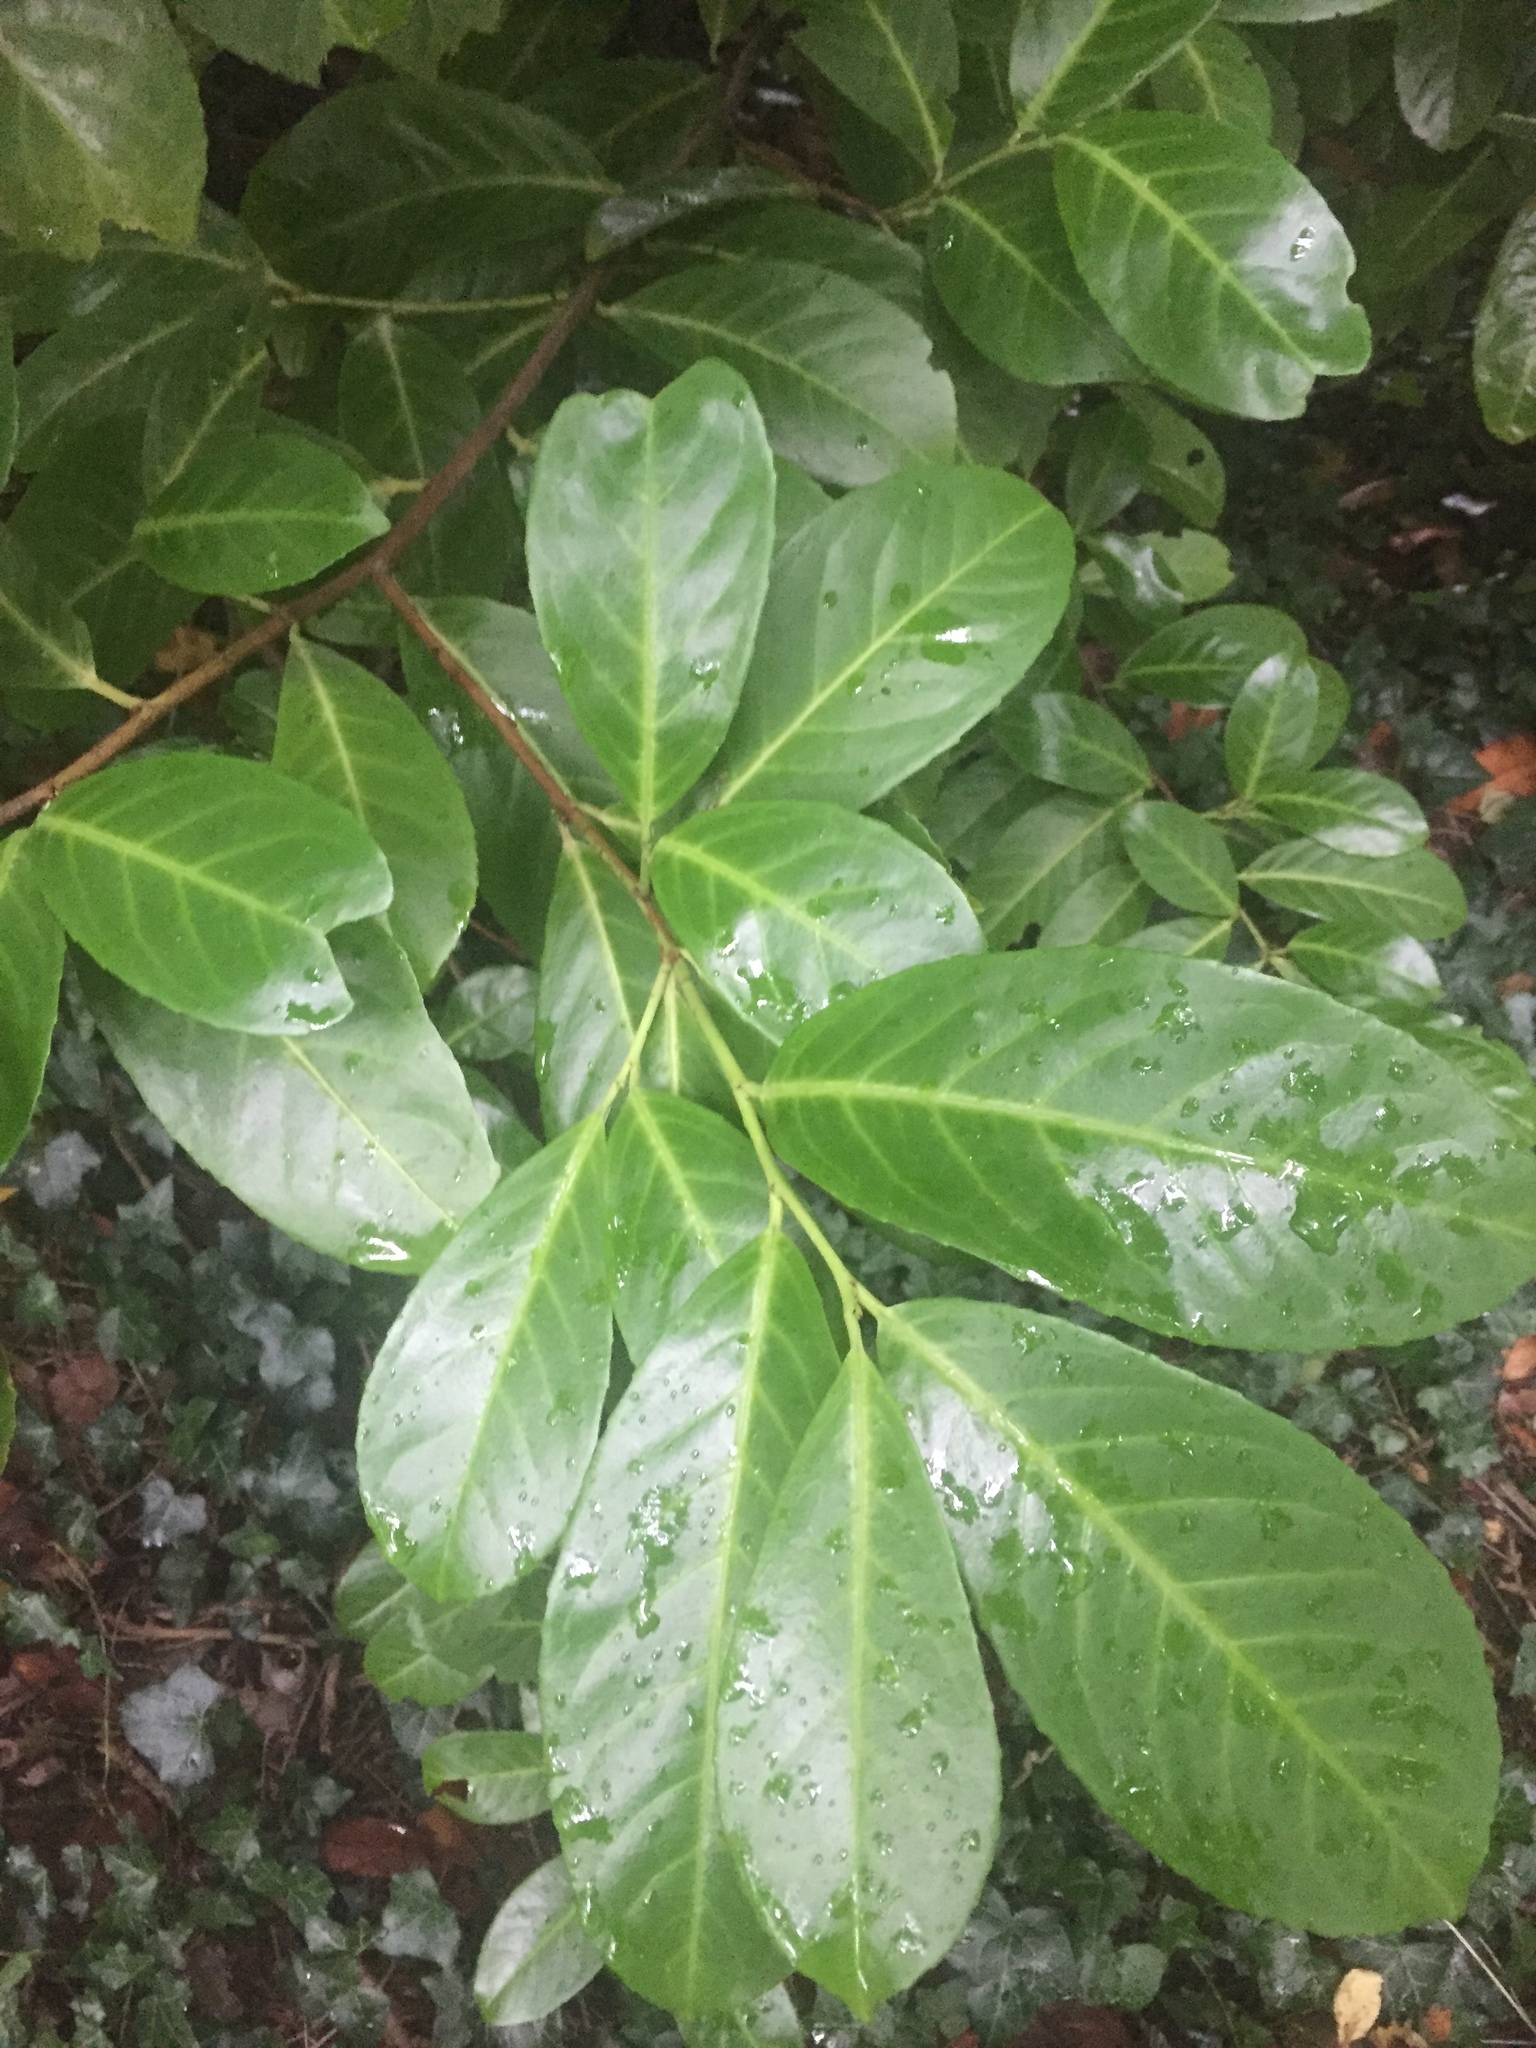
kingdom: Plantae
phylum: Tracheophyta
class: Magnoliopsida
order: Rosales
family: Rosaceae
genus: Prunus
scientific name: Prunus laurocerasus
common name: Cherry laurel
